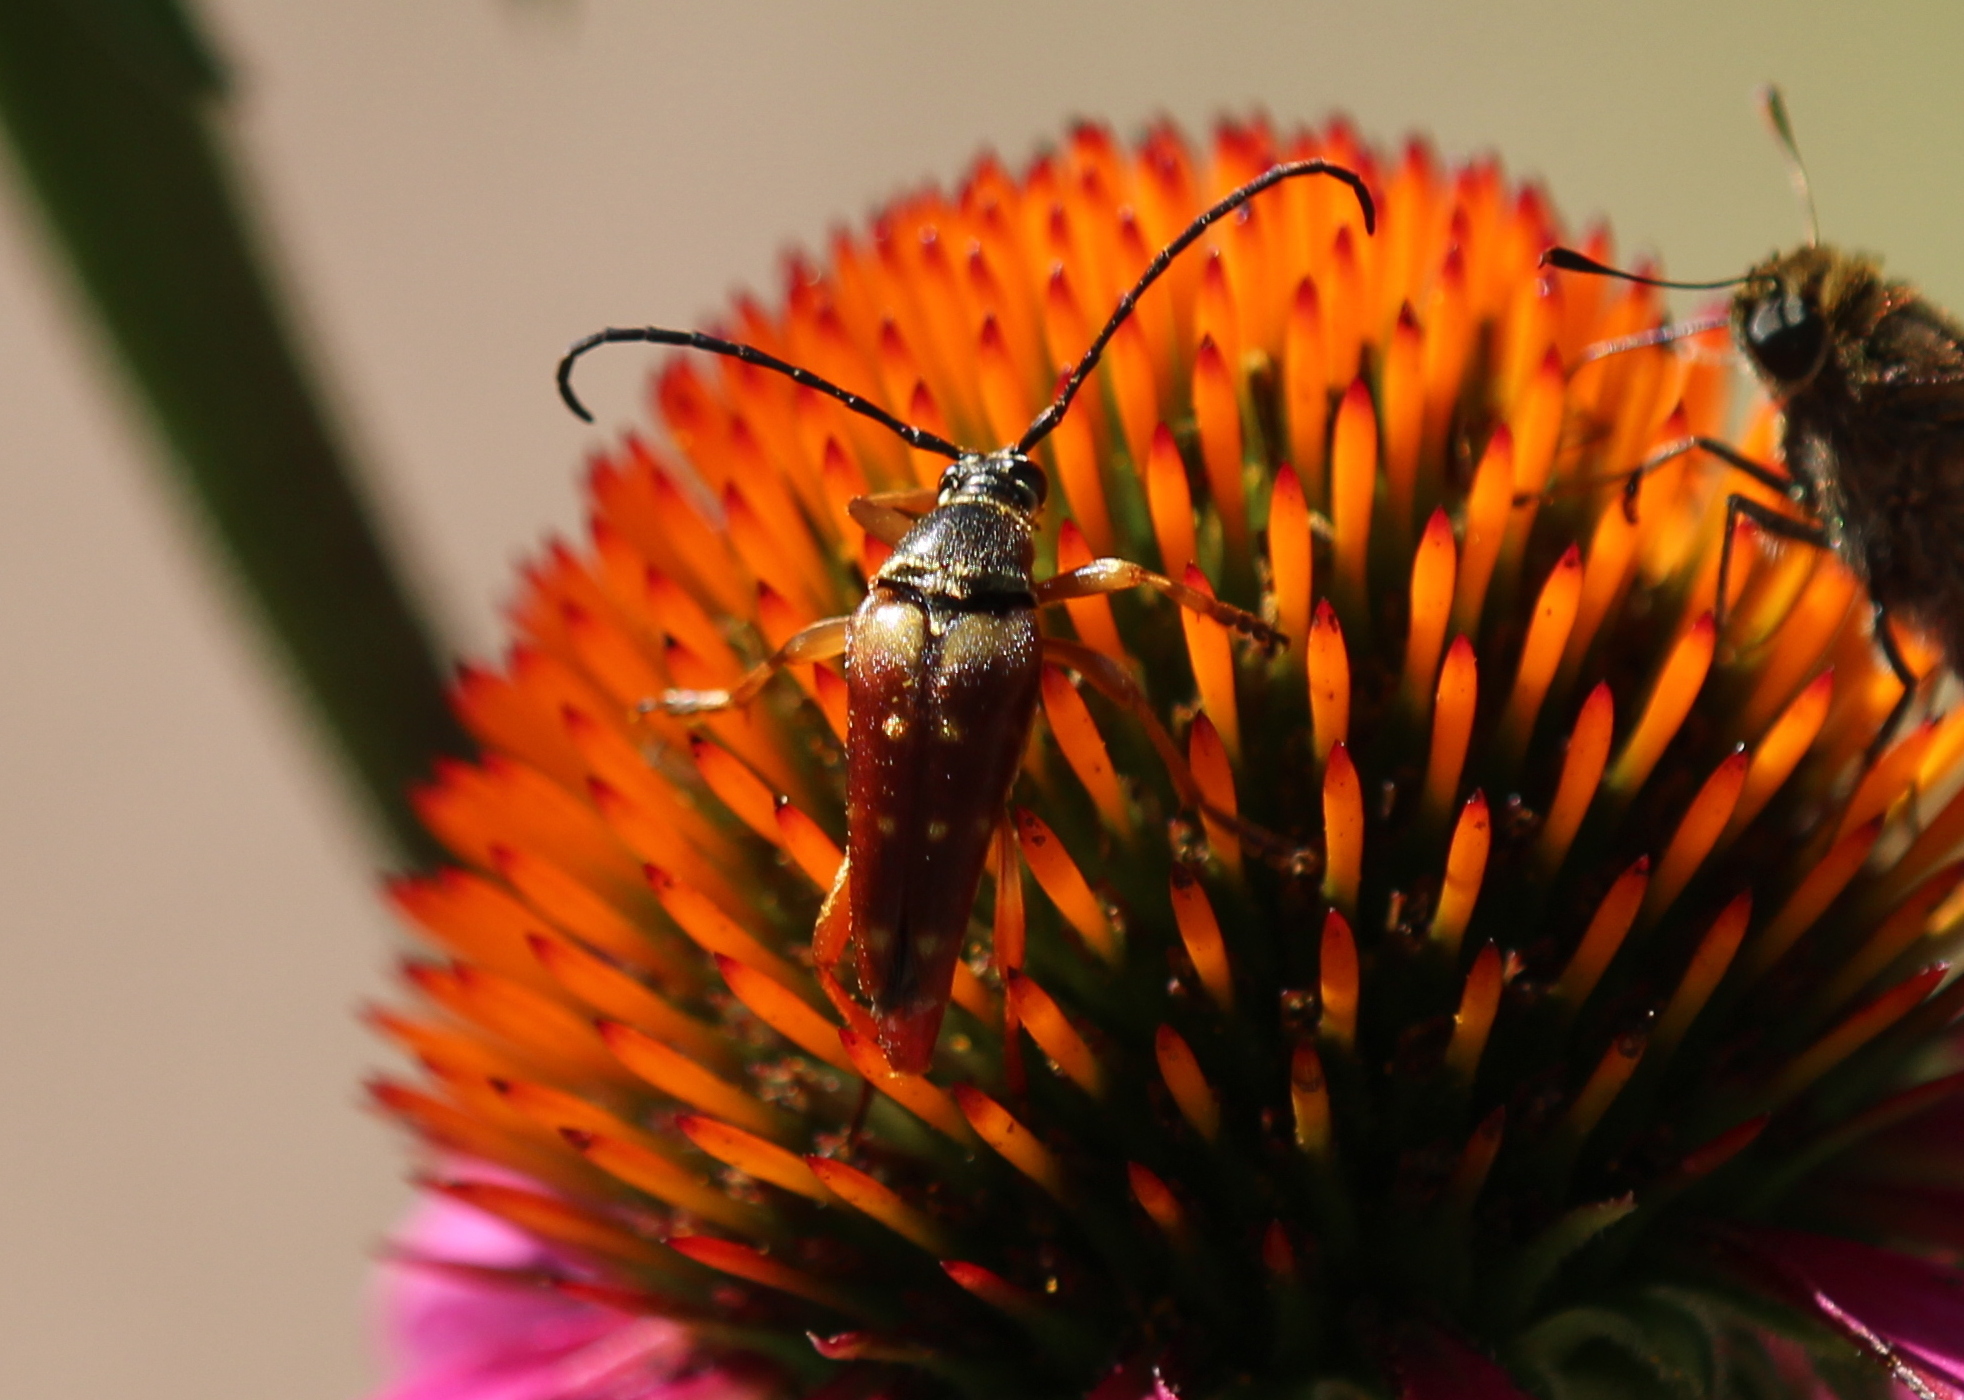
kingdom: Animalia
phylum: Arthropoda
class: Insecta
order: Coleoptera
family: Cerambycidae
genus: Typocerus
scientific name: Typocerus velutinus
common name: Banded longhorn beetle
